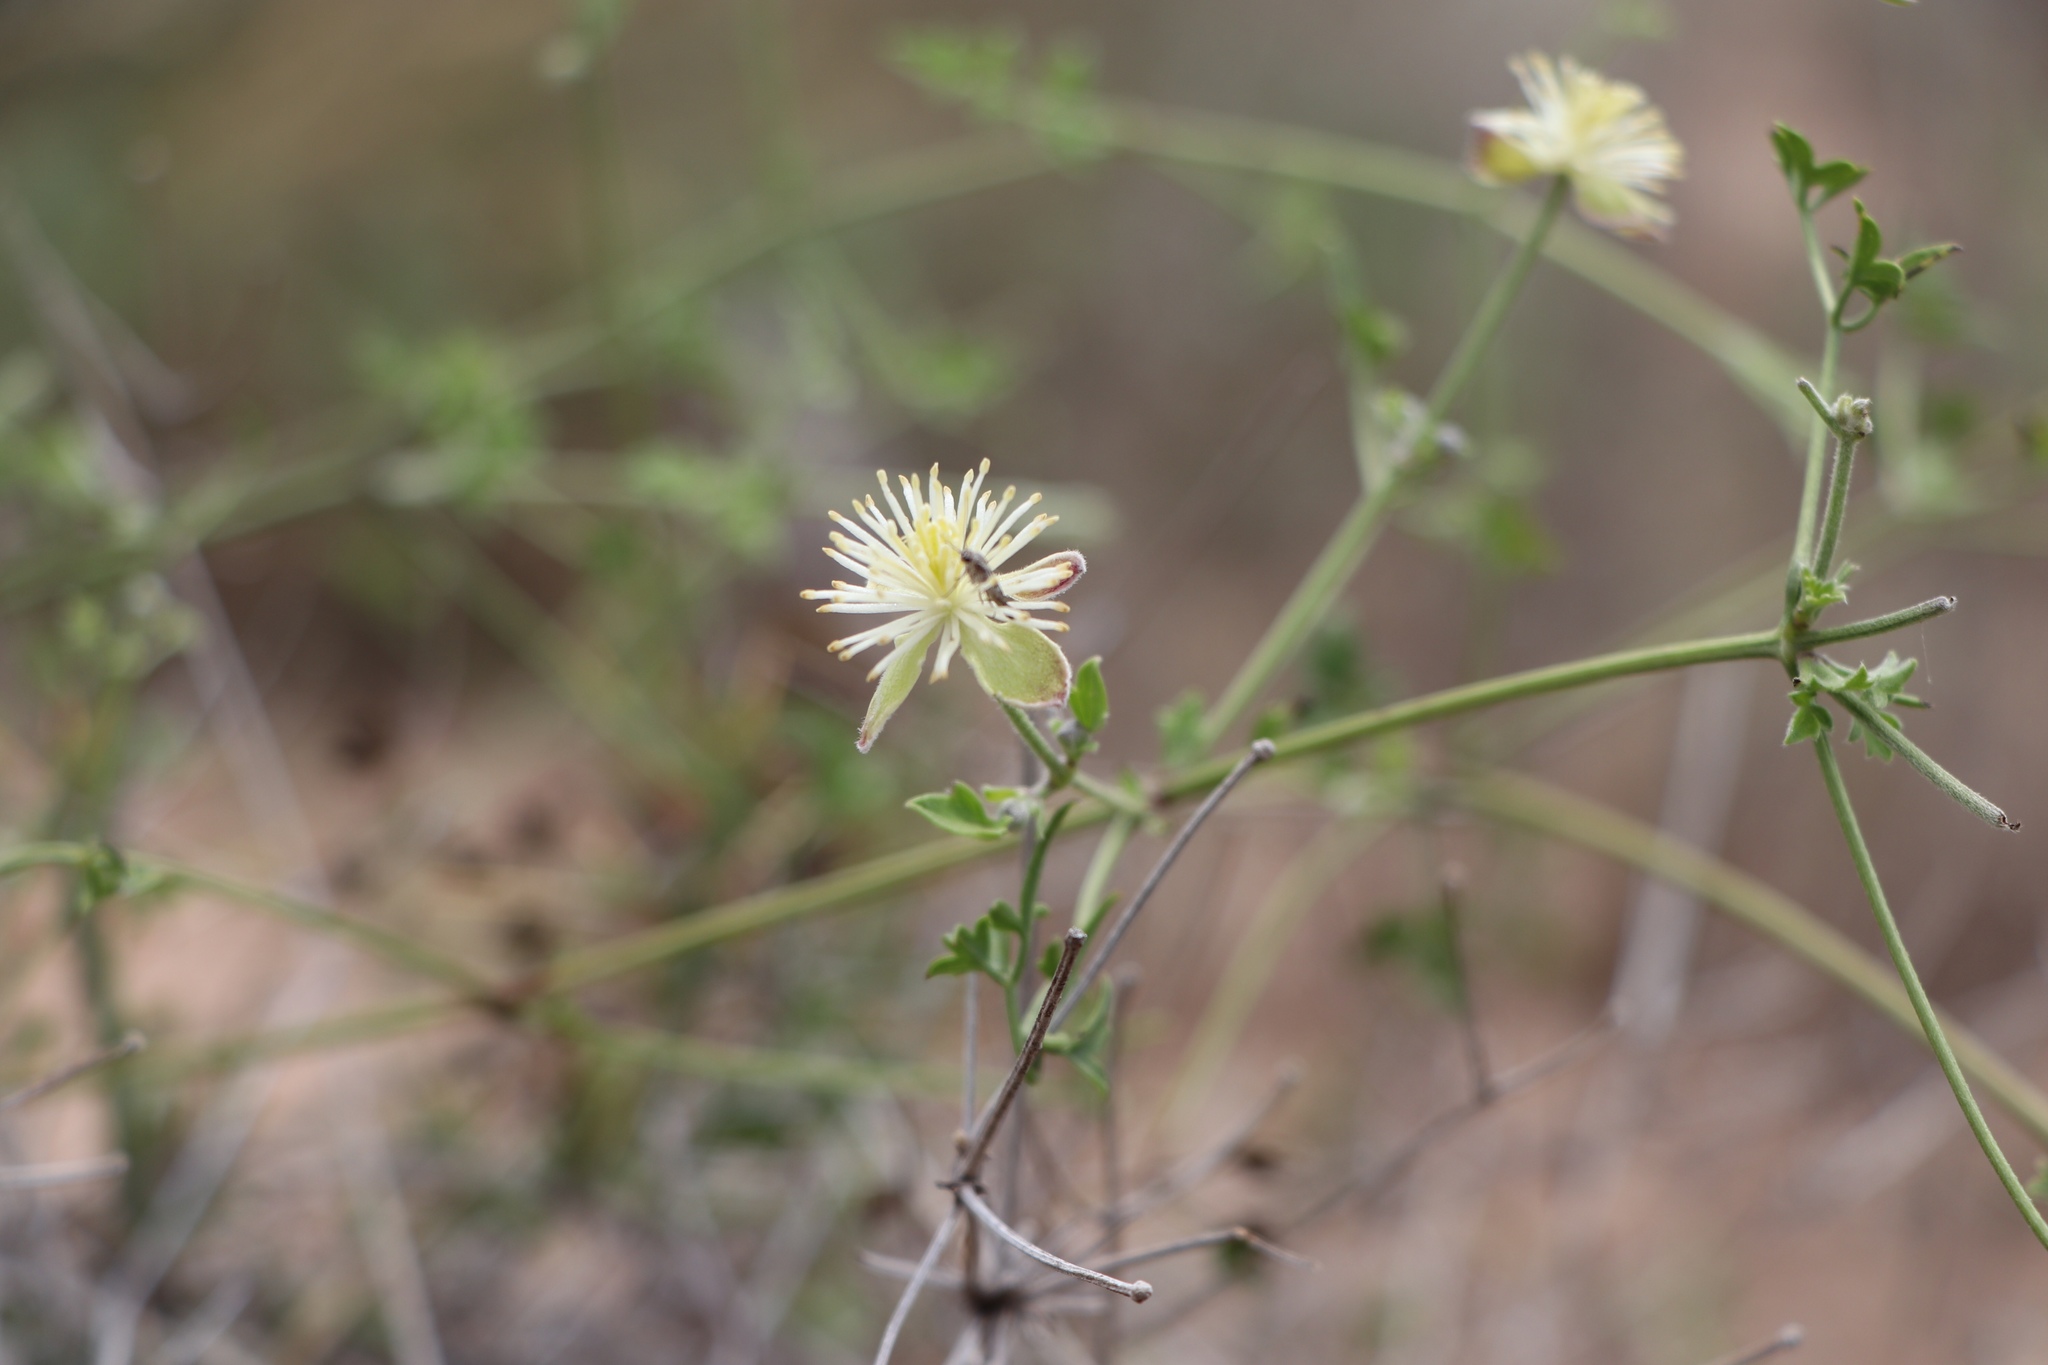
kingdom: Plantae
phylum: Tracheophyta
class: Magnoliopsida
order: Ranunculales
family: Ranunculaceae
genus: Clematis
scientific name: Clematis drummondii
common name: Texas virgin's bower
